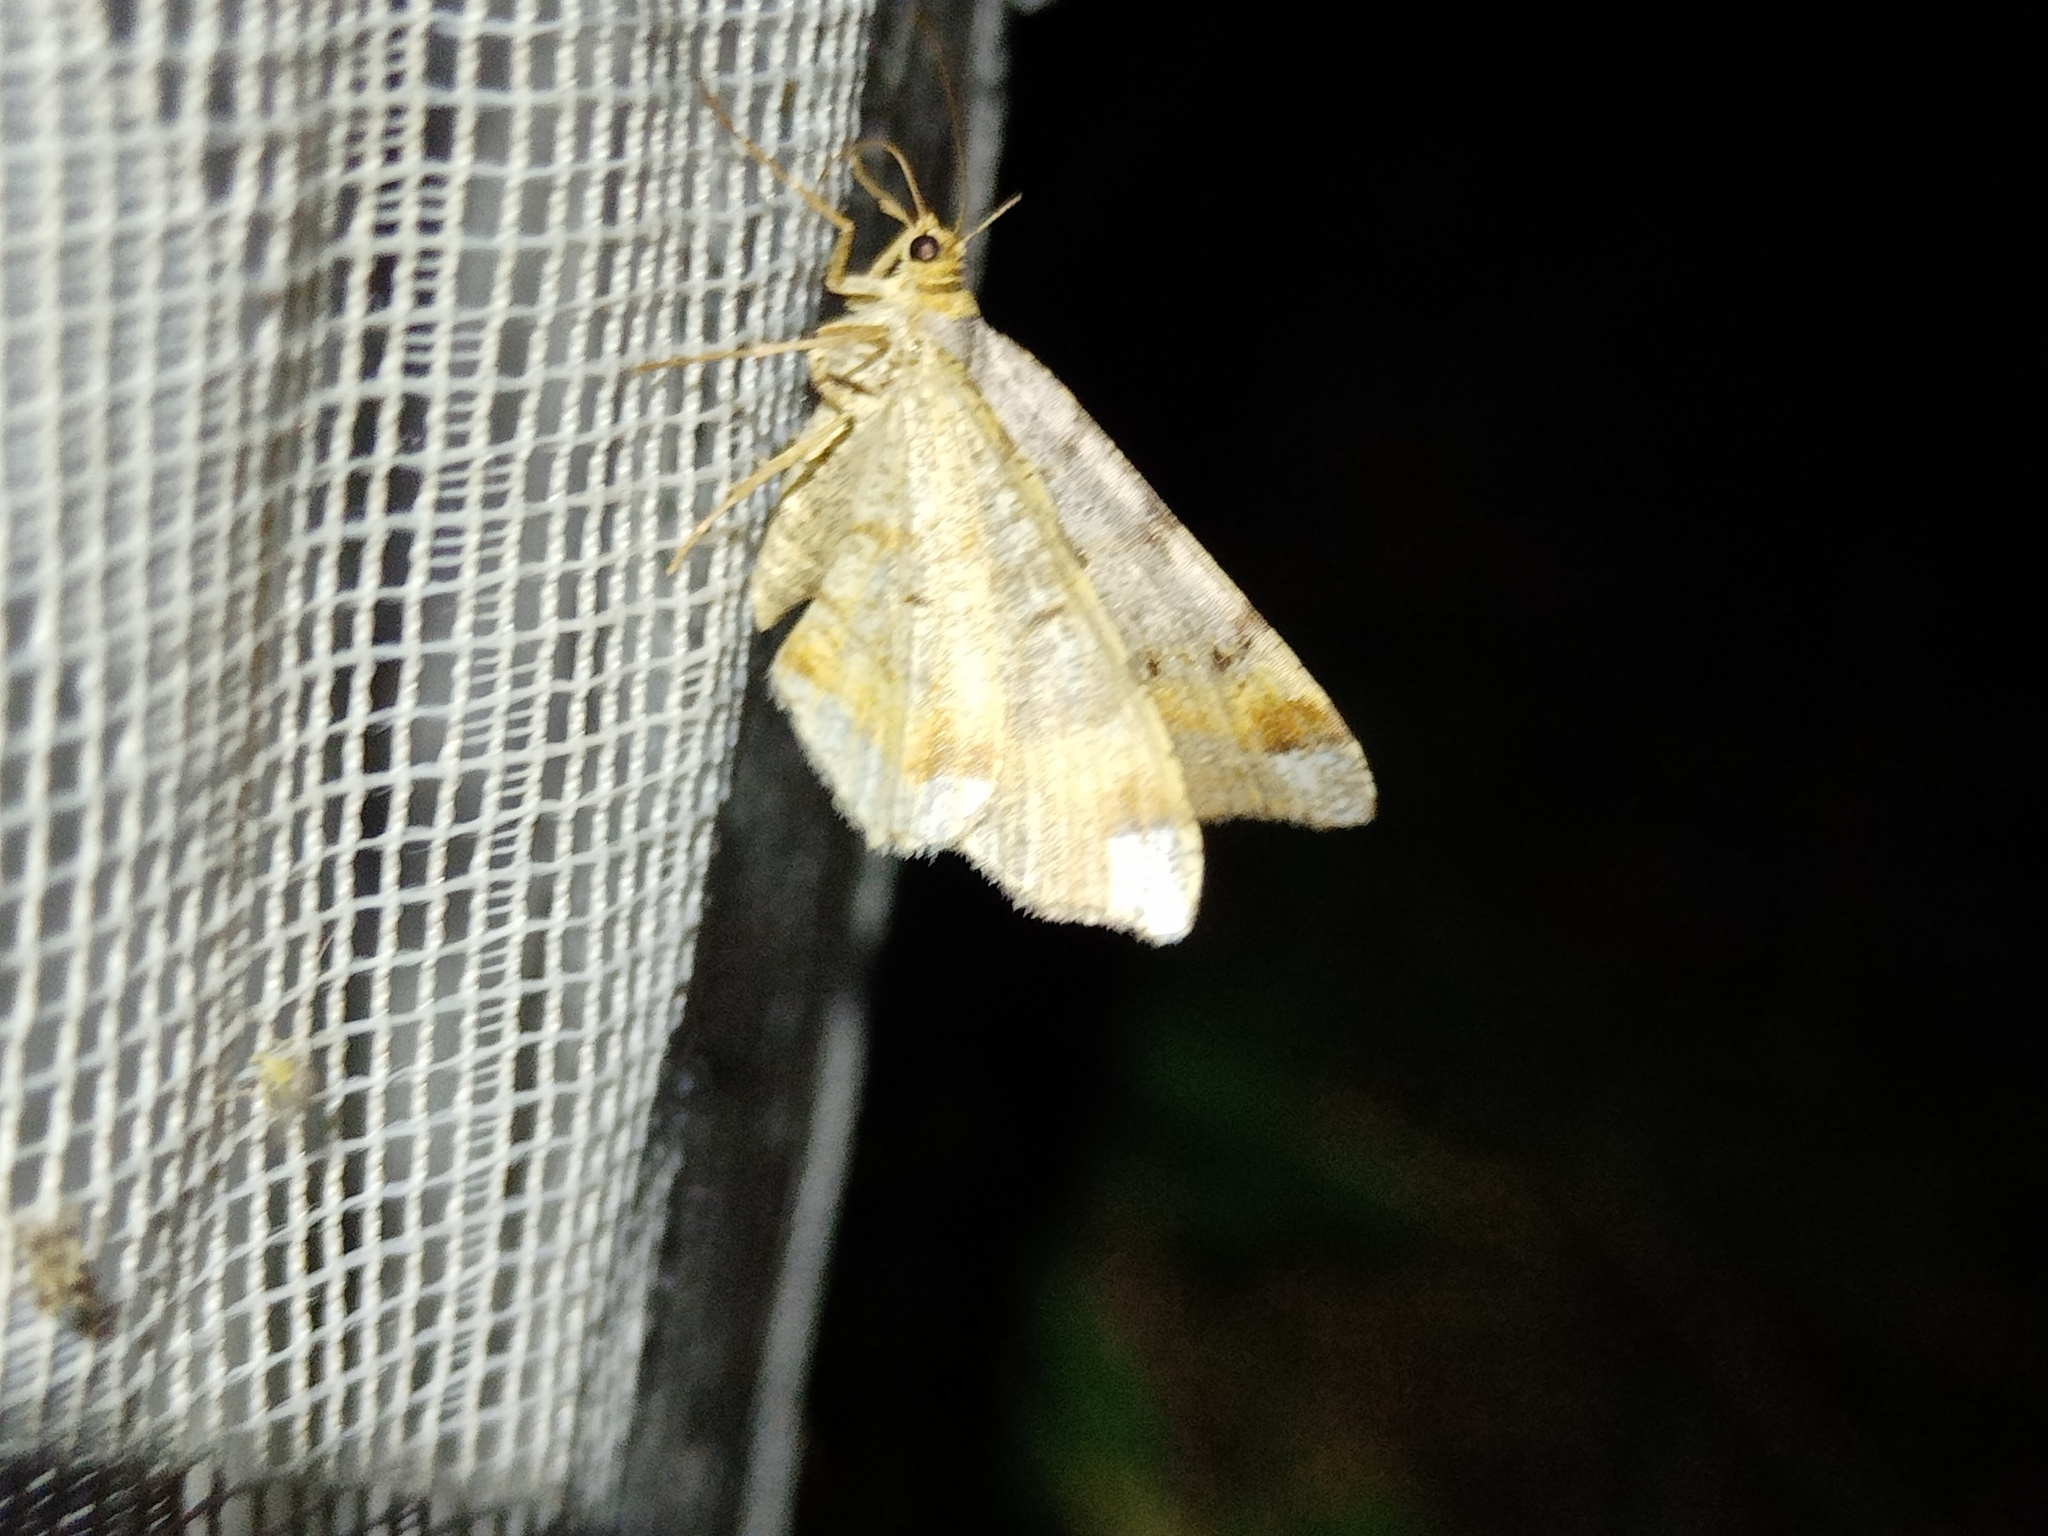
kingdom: Animalia
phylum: Arthropoda
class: Insecta
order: Lepidoptera
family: Geometridae
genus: Macaria
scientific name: Macaria liturata
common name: Tawny-barred angle
